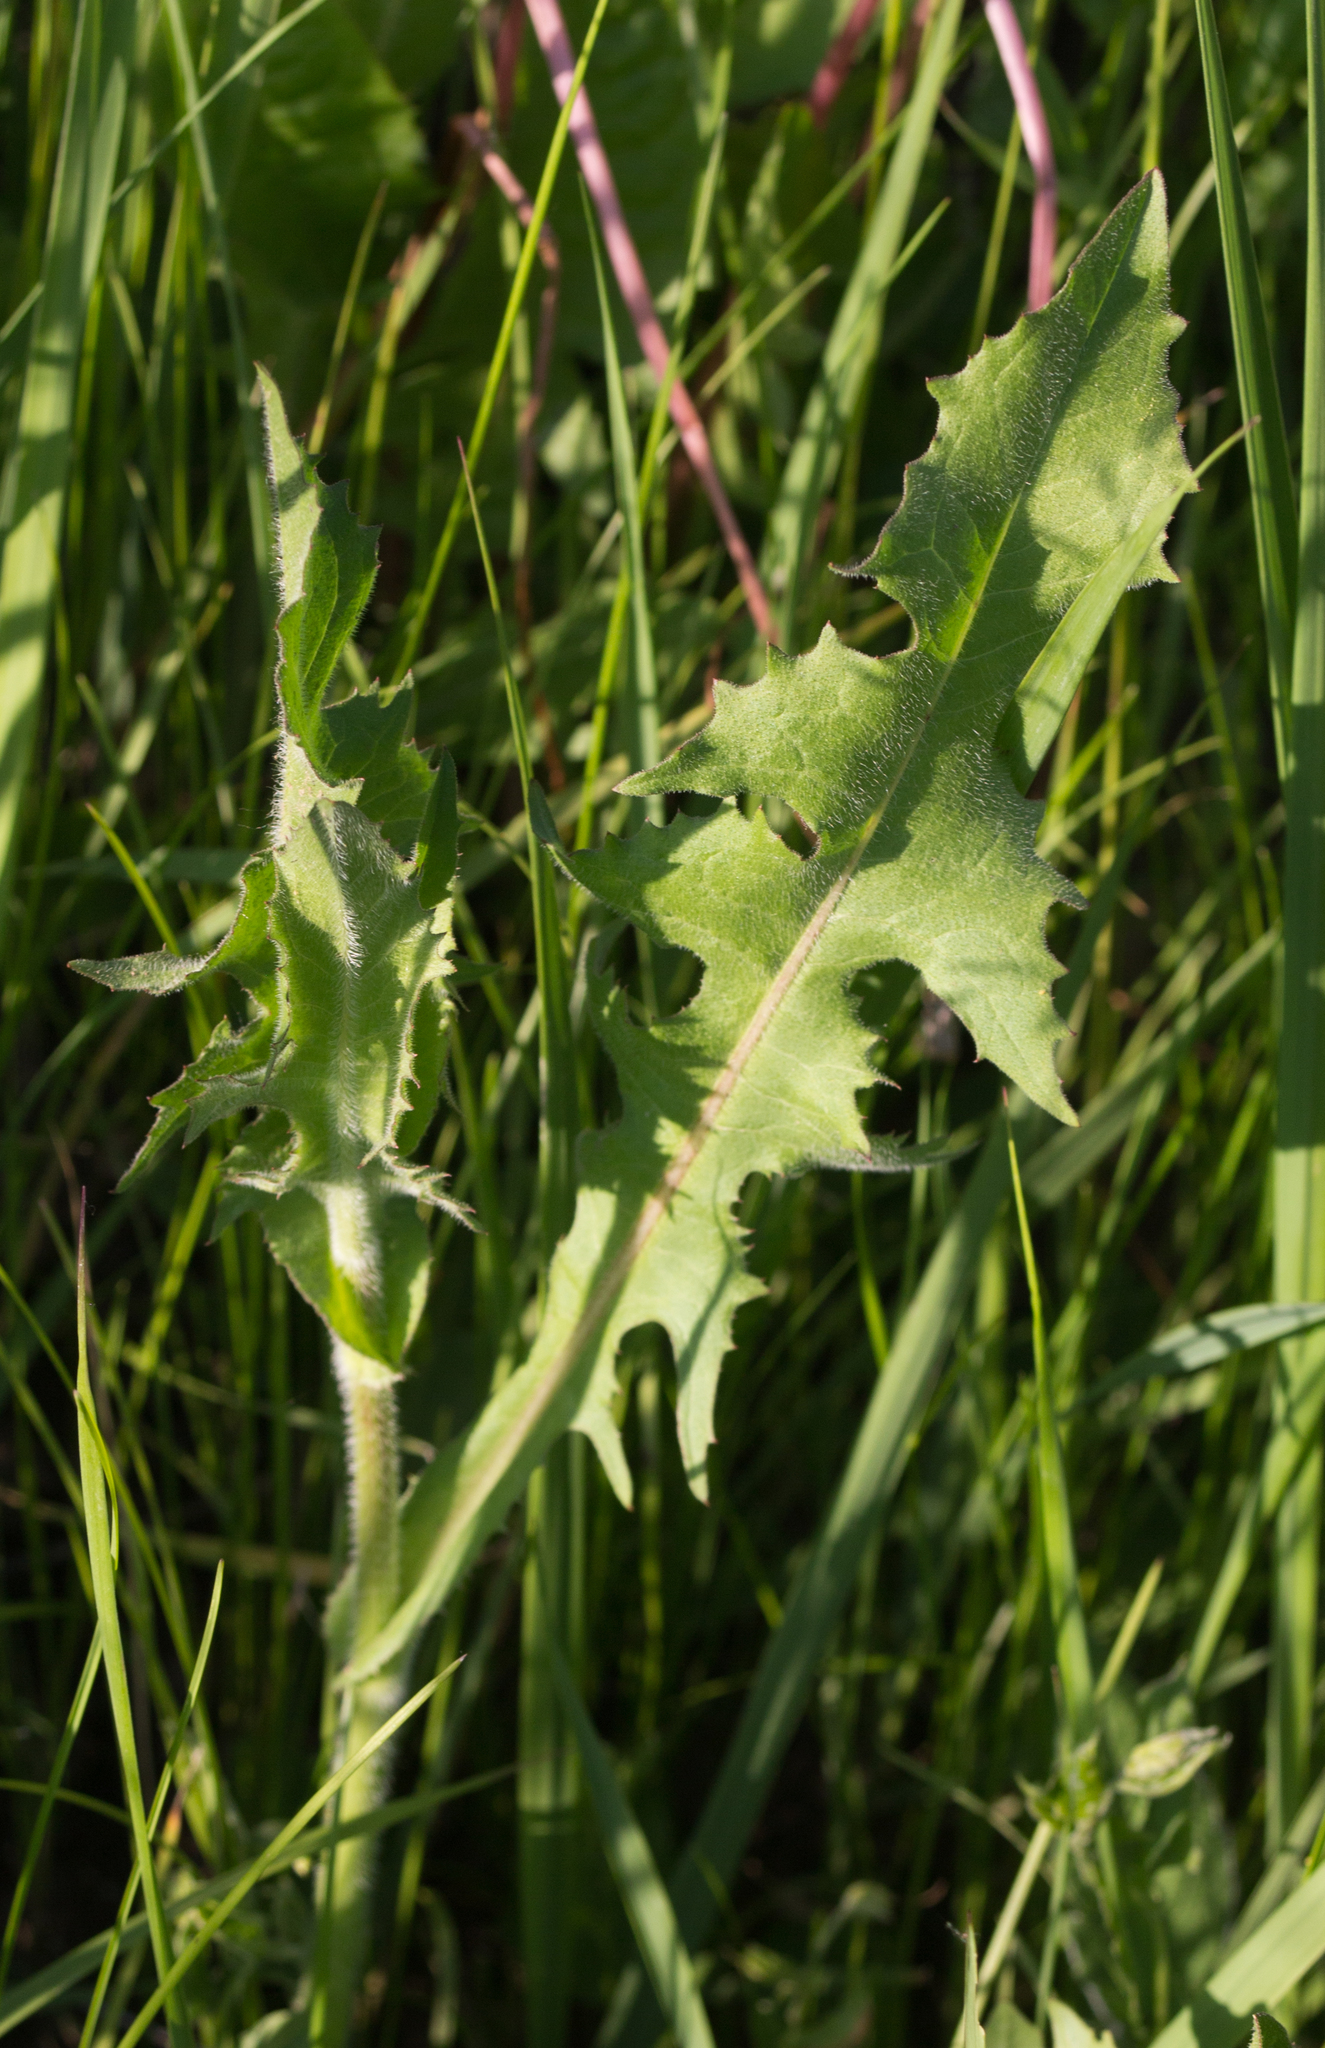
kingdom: Plantae
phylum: Tracheophyta
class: Magnoliopsida
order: Asterales
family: Asteraceae
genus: Cichorium
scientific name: Cichorium intybus
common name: Chicory
